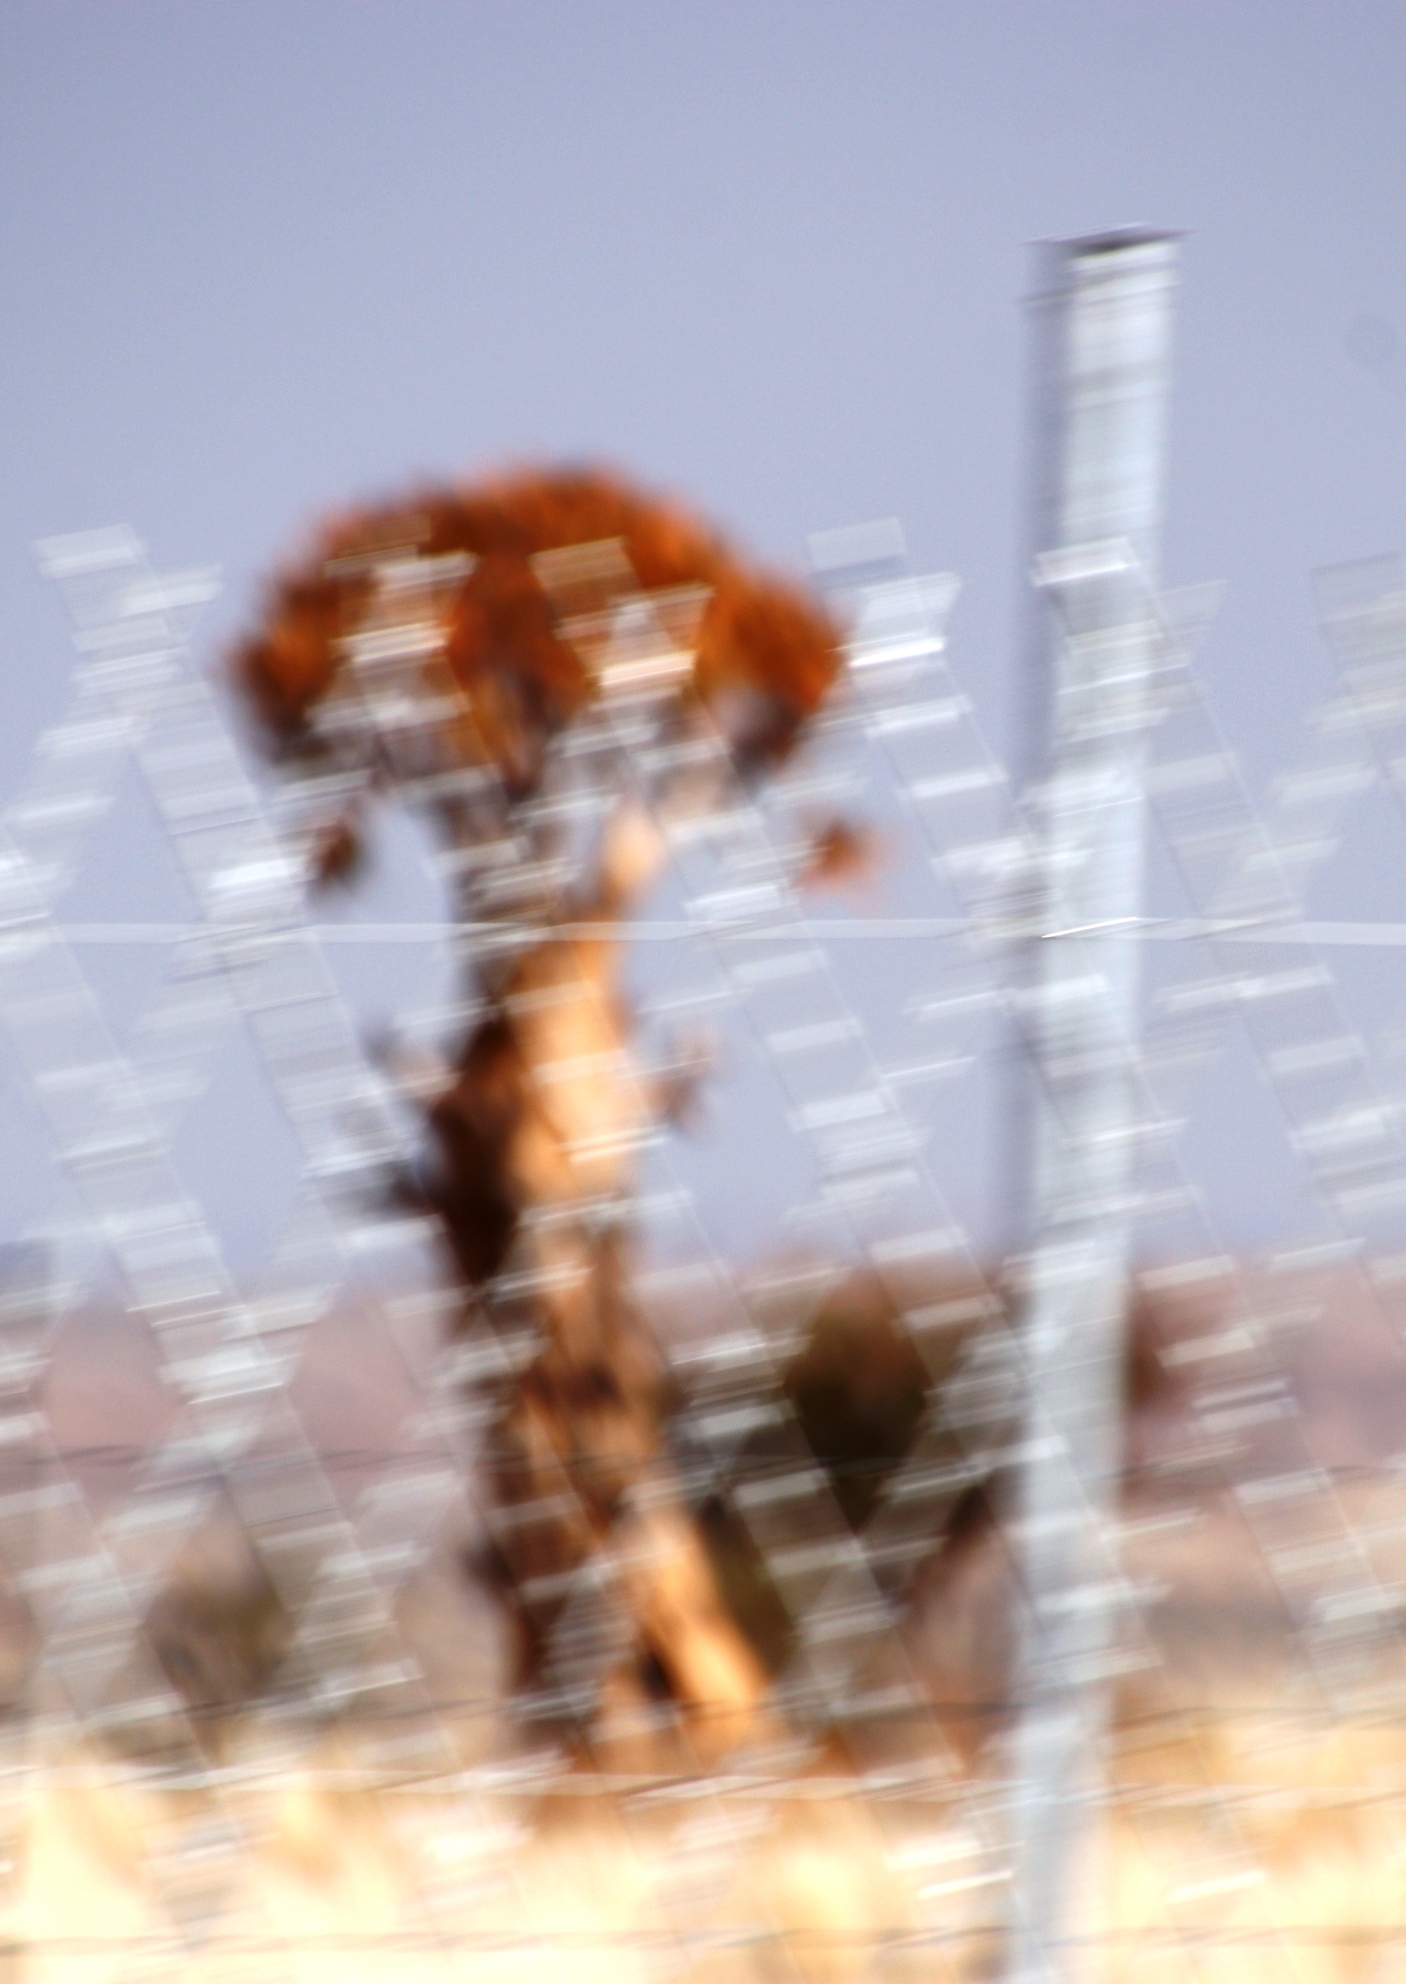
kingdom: Plantae
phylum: Tracheophyta
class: Liliopsida
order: Asparagales
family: Asphodelaceae
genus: Aloidendron
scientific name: Aloidendron dichotomum
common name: Quiver tree
